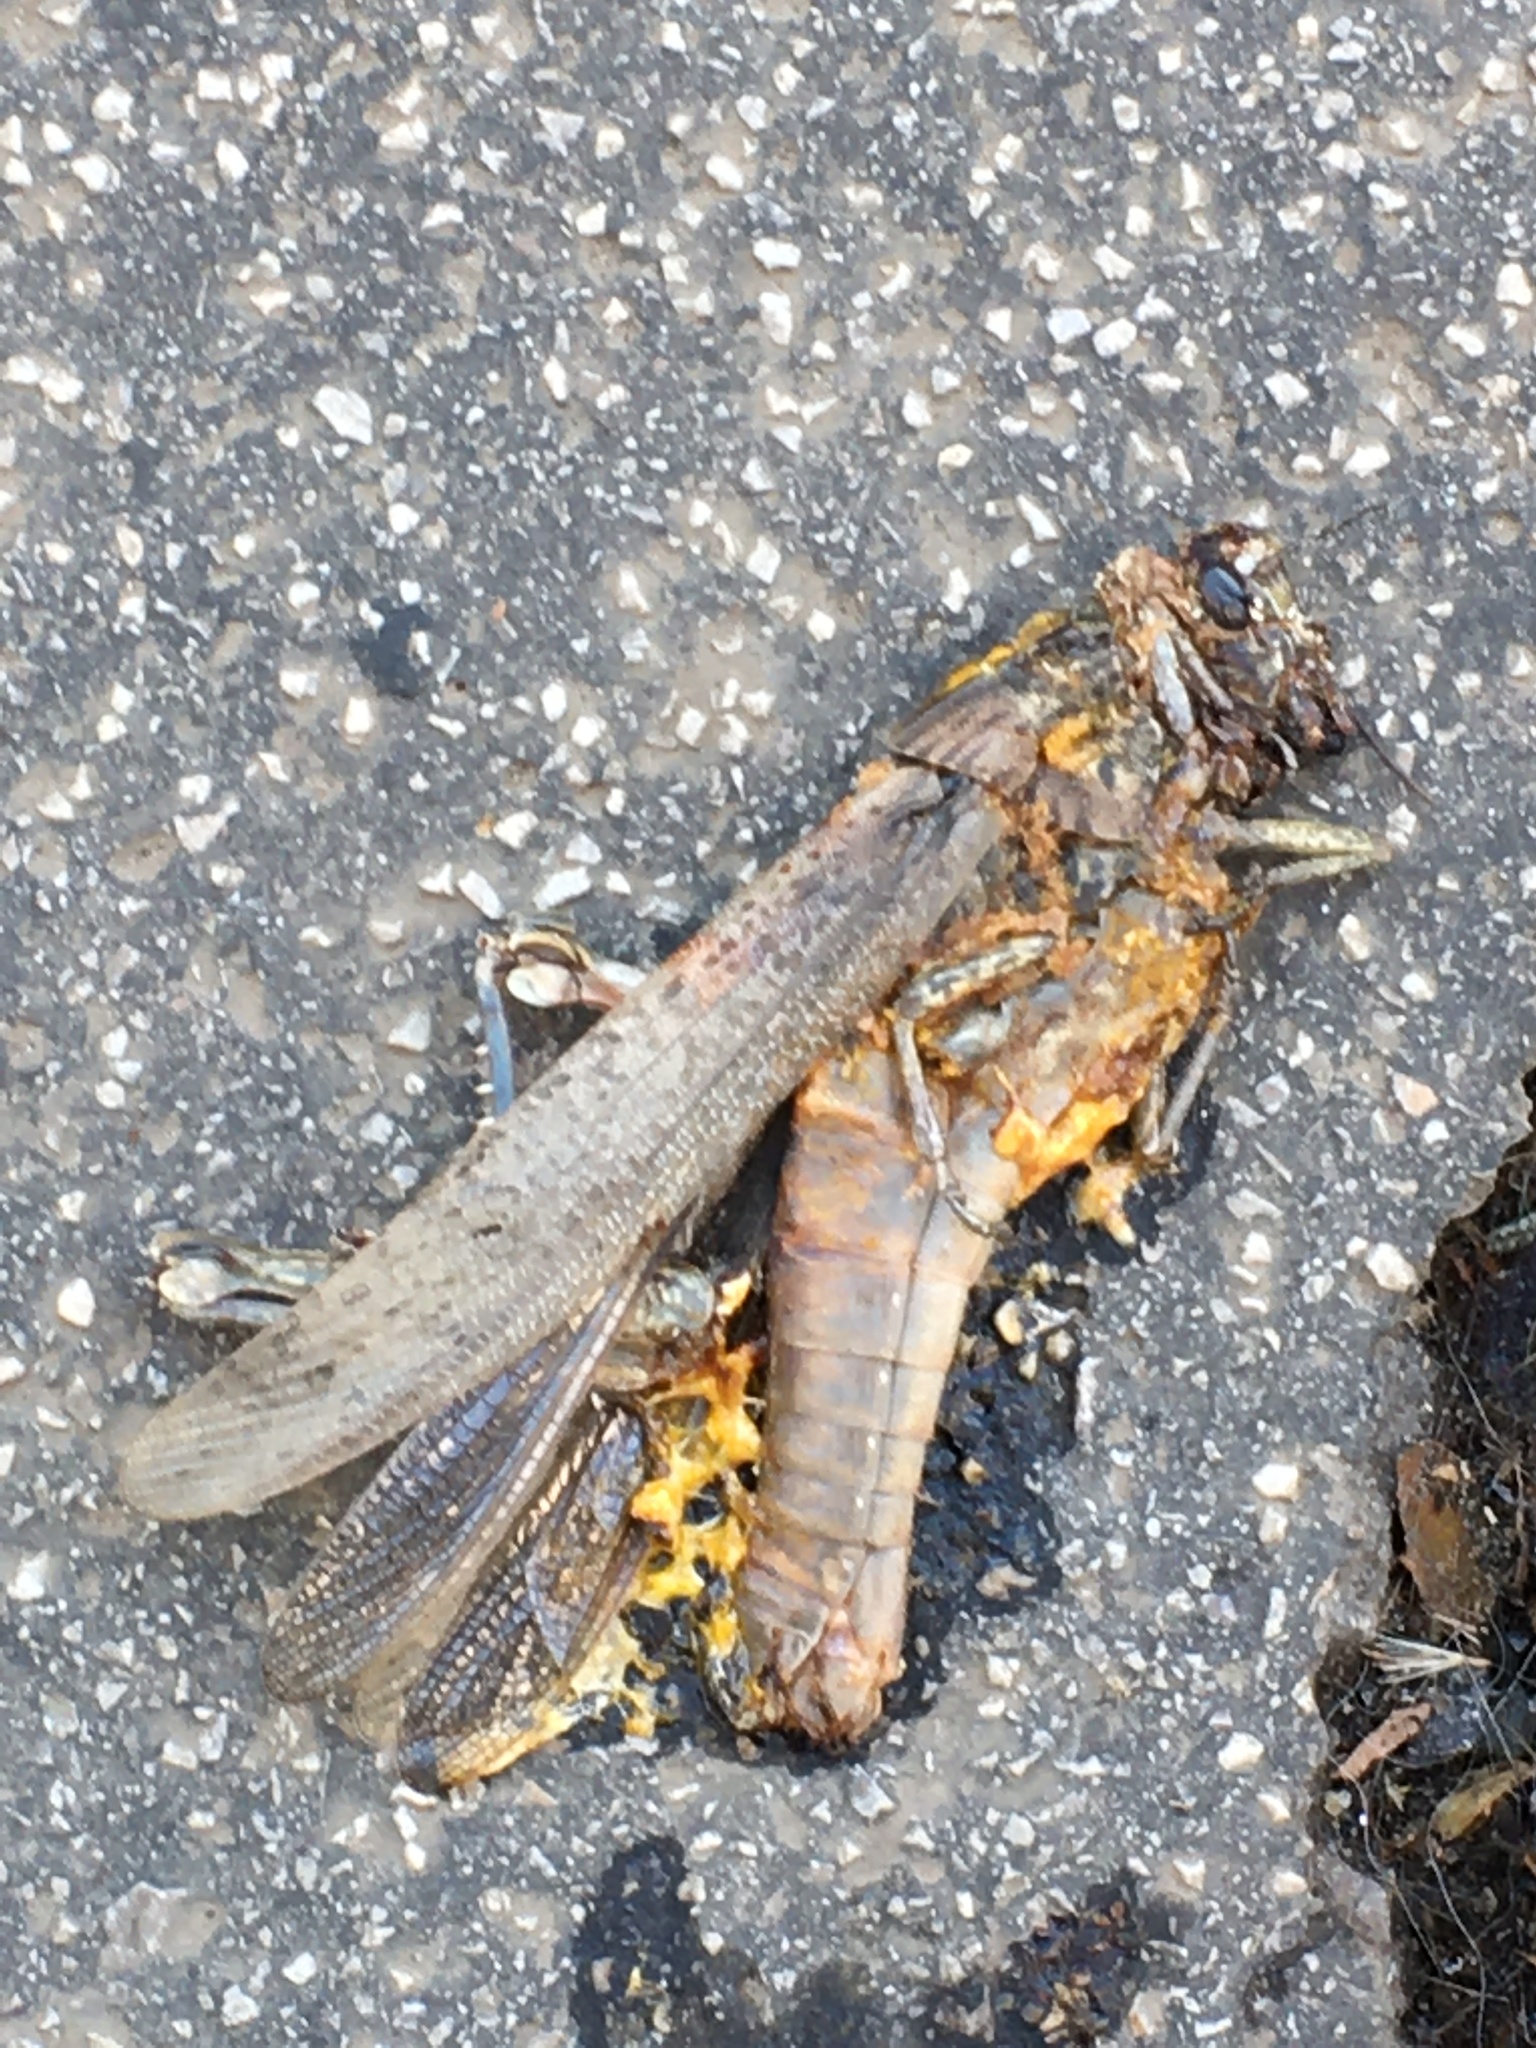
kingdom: Animalia
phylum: Arthropoda
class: Insecta
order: Orthoptera
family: Acrididae
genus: Anacridium
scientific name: Anacridium aegyptium
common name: Egyptian grasshopper
